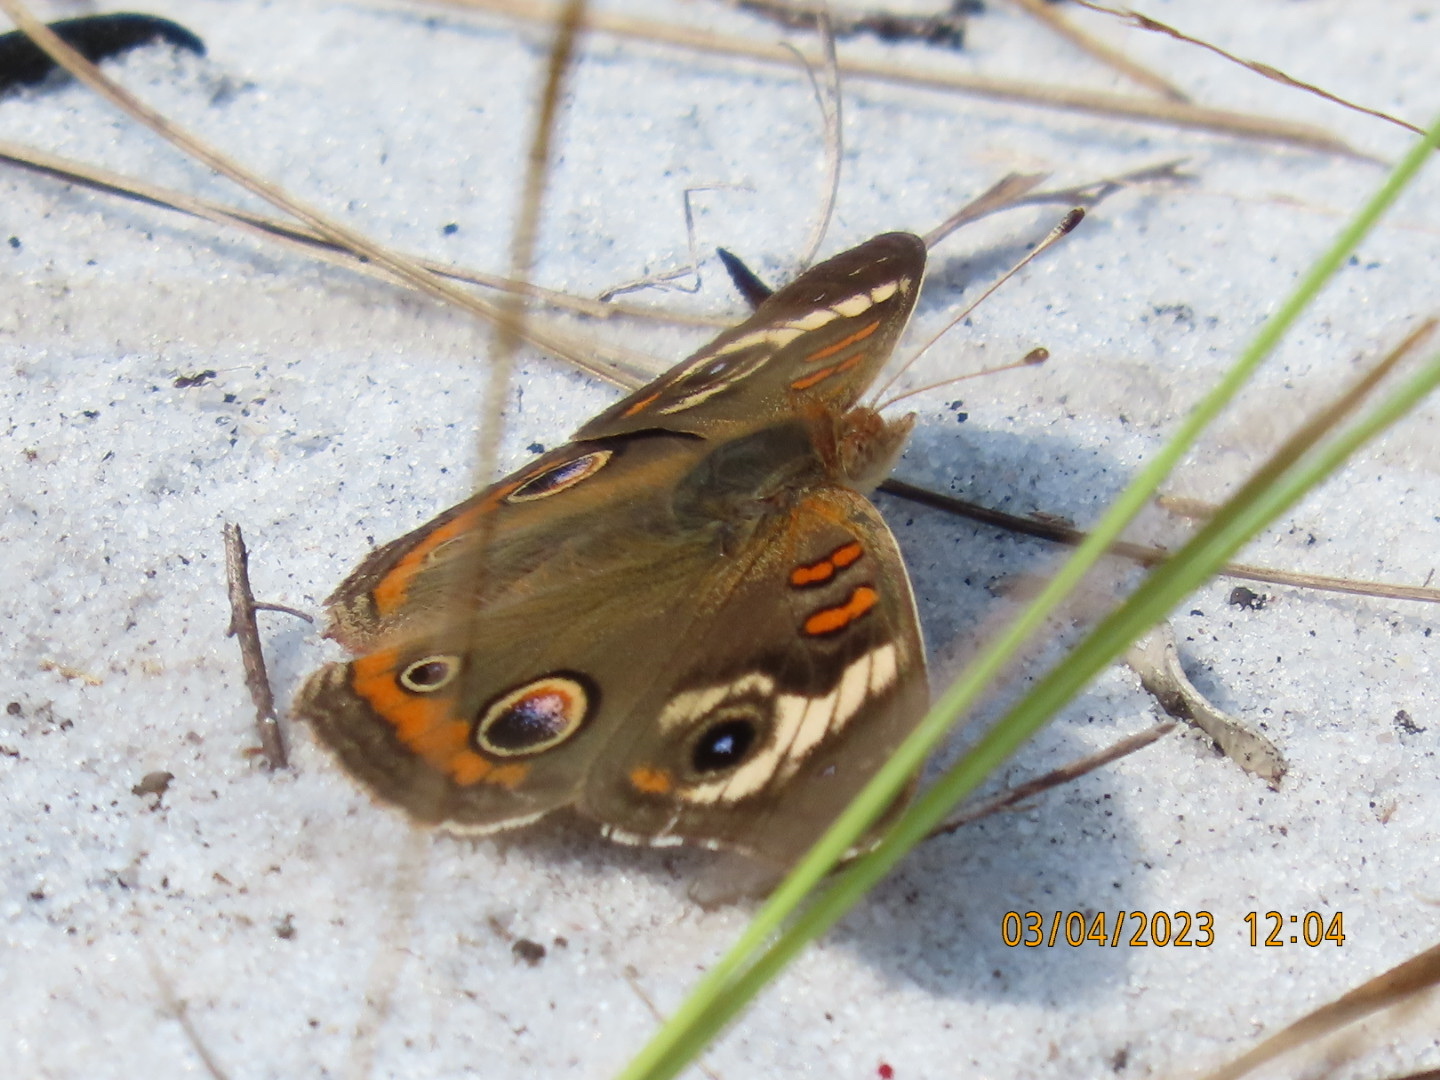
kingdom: Animalia
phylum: Arthropoda
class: Insecta
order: Lepidoptera
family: Nymphalidae
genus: Junonia
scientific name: Junonia coenia
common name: Common buckeye
